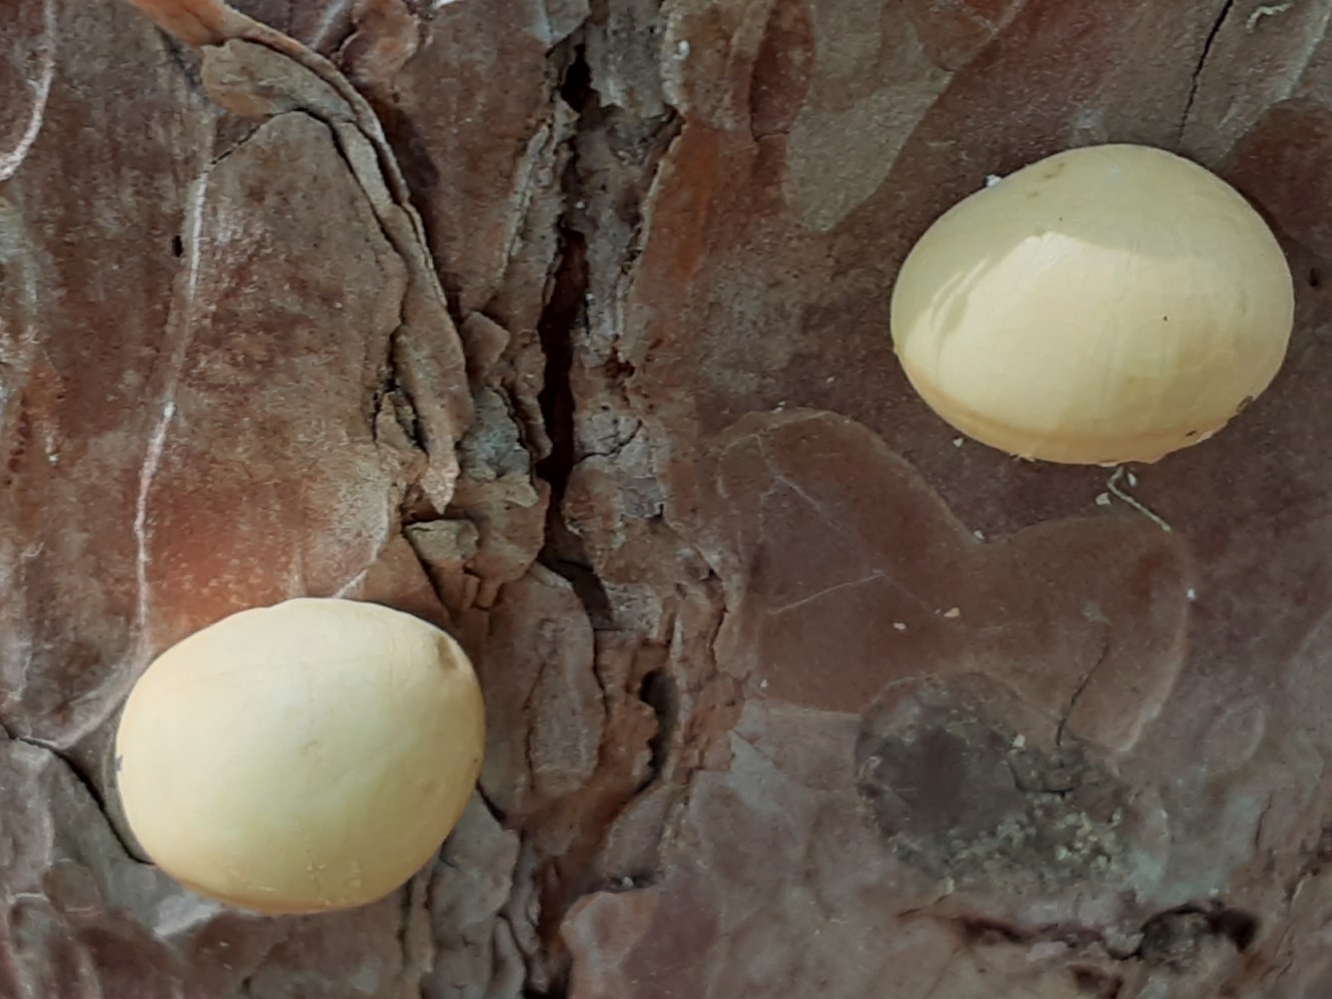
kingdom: Fungi
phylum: Basidiomycota
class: Agaricomycetes
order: Polyporales
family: Polyporaceae
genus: Cryptoporus
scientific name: Cryptoporus volvatus
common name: Veiled polypore
